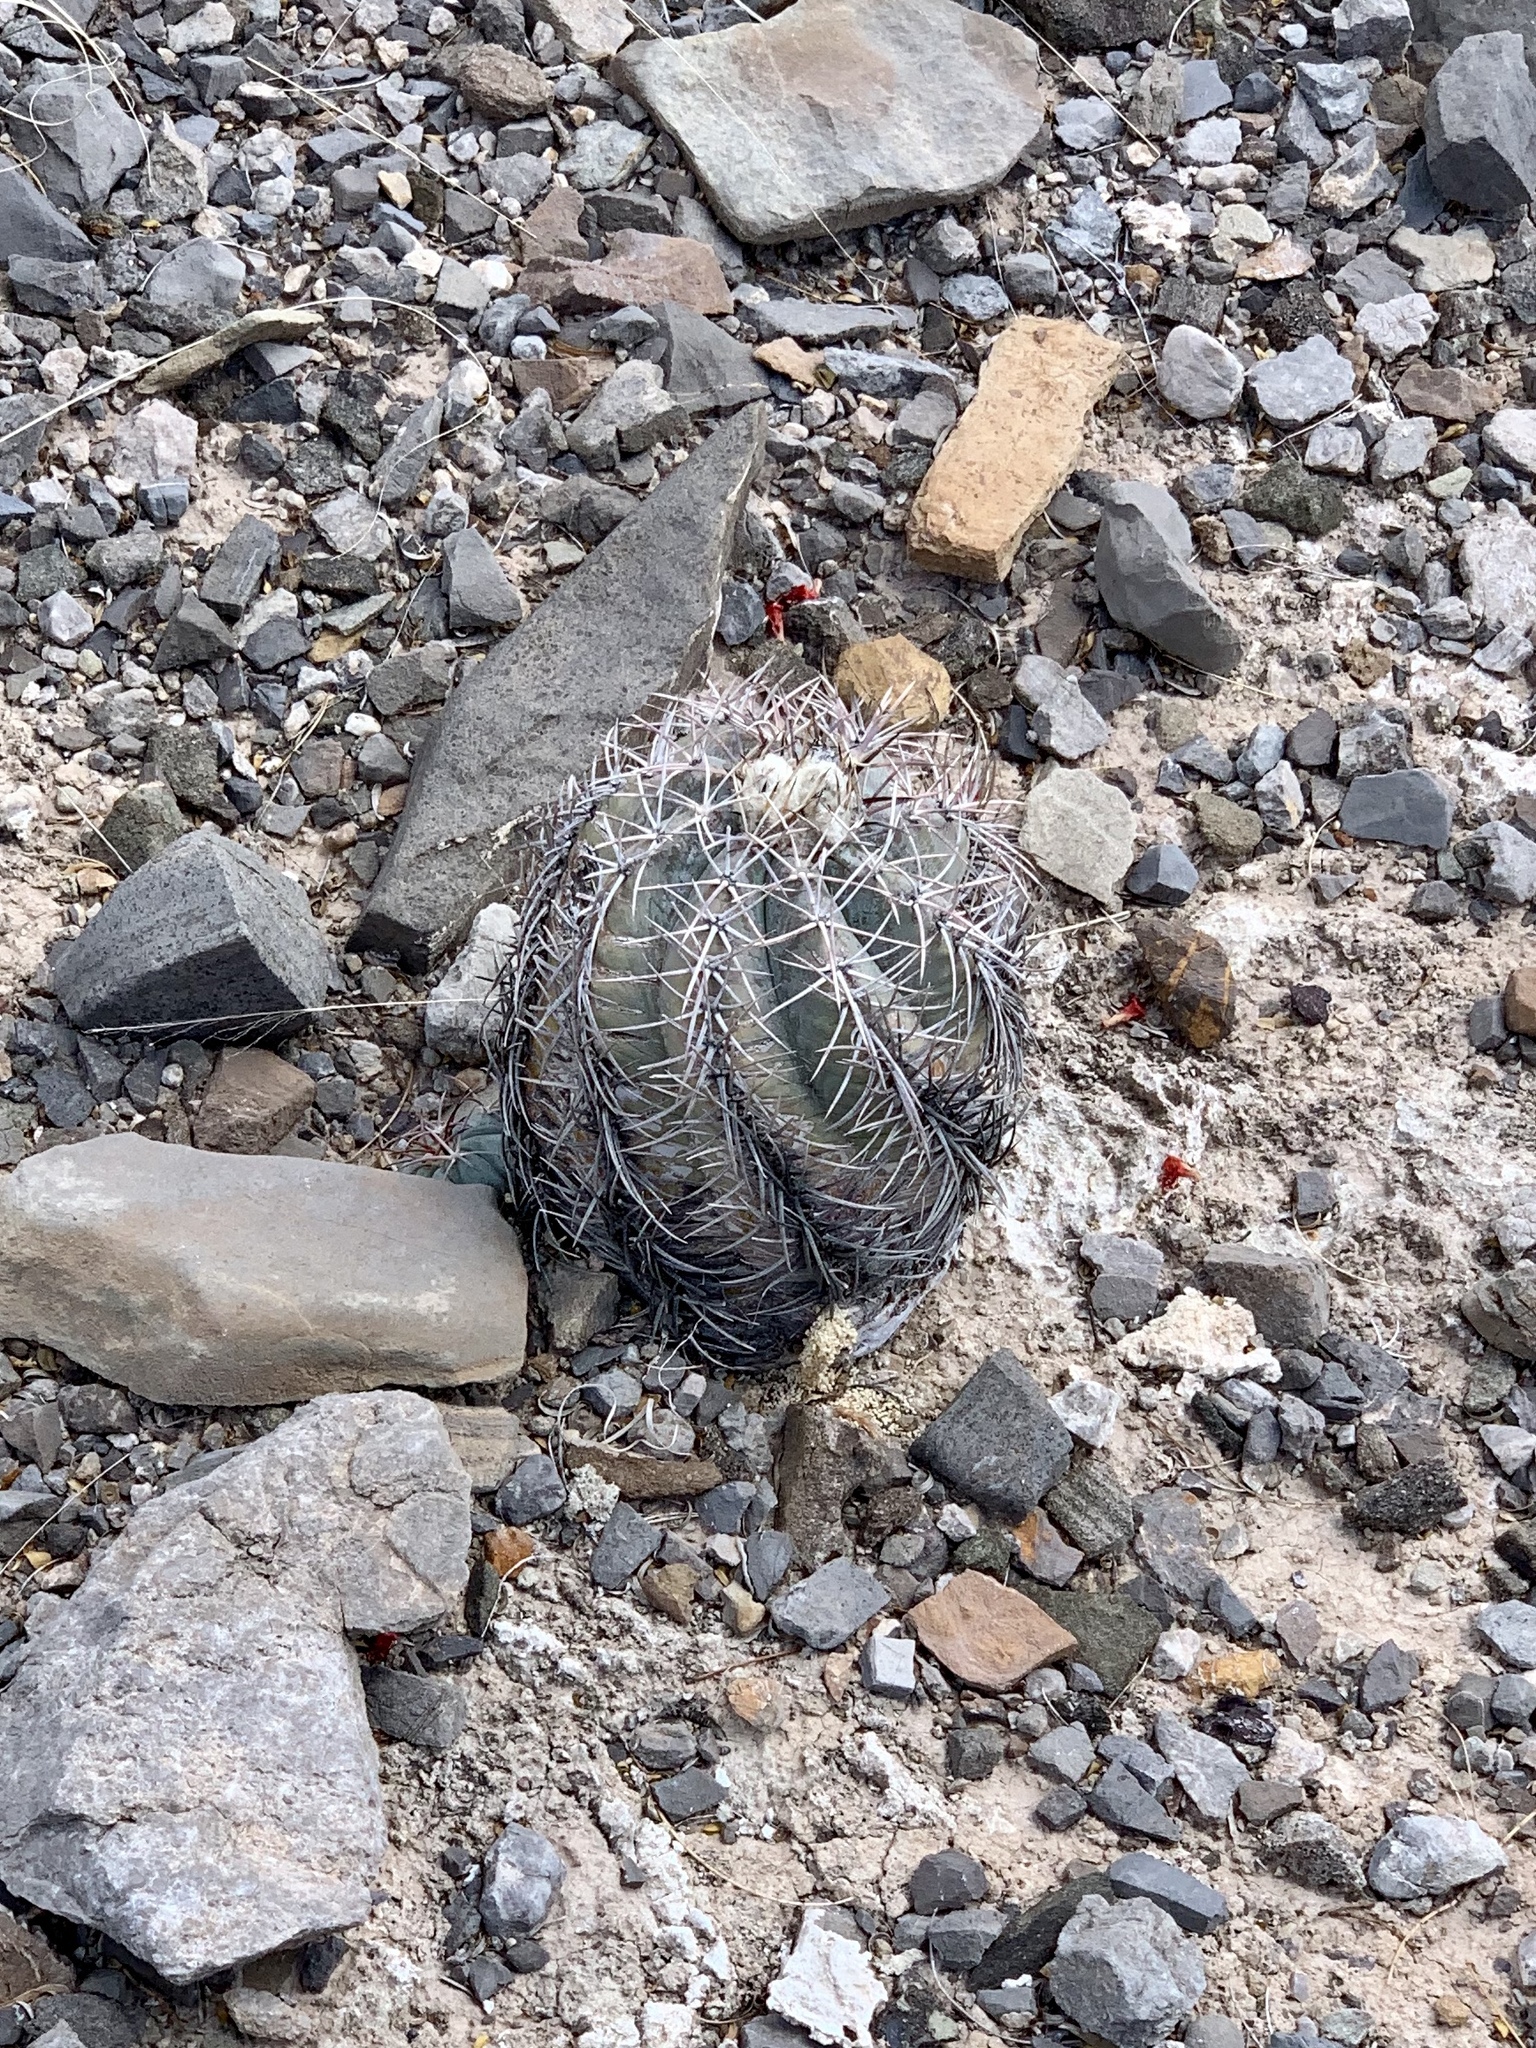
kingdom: Plantae
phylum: Tracheophyta
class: Magnoliopsida
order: Caryophyllales
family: Cactaceae
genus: Echinocactus
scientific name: Echinocactus horizonthalonius
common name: Devilshead
